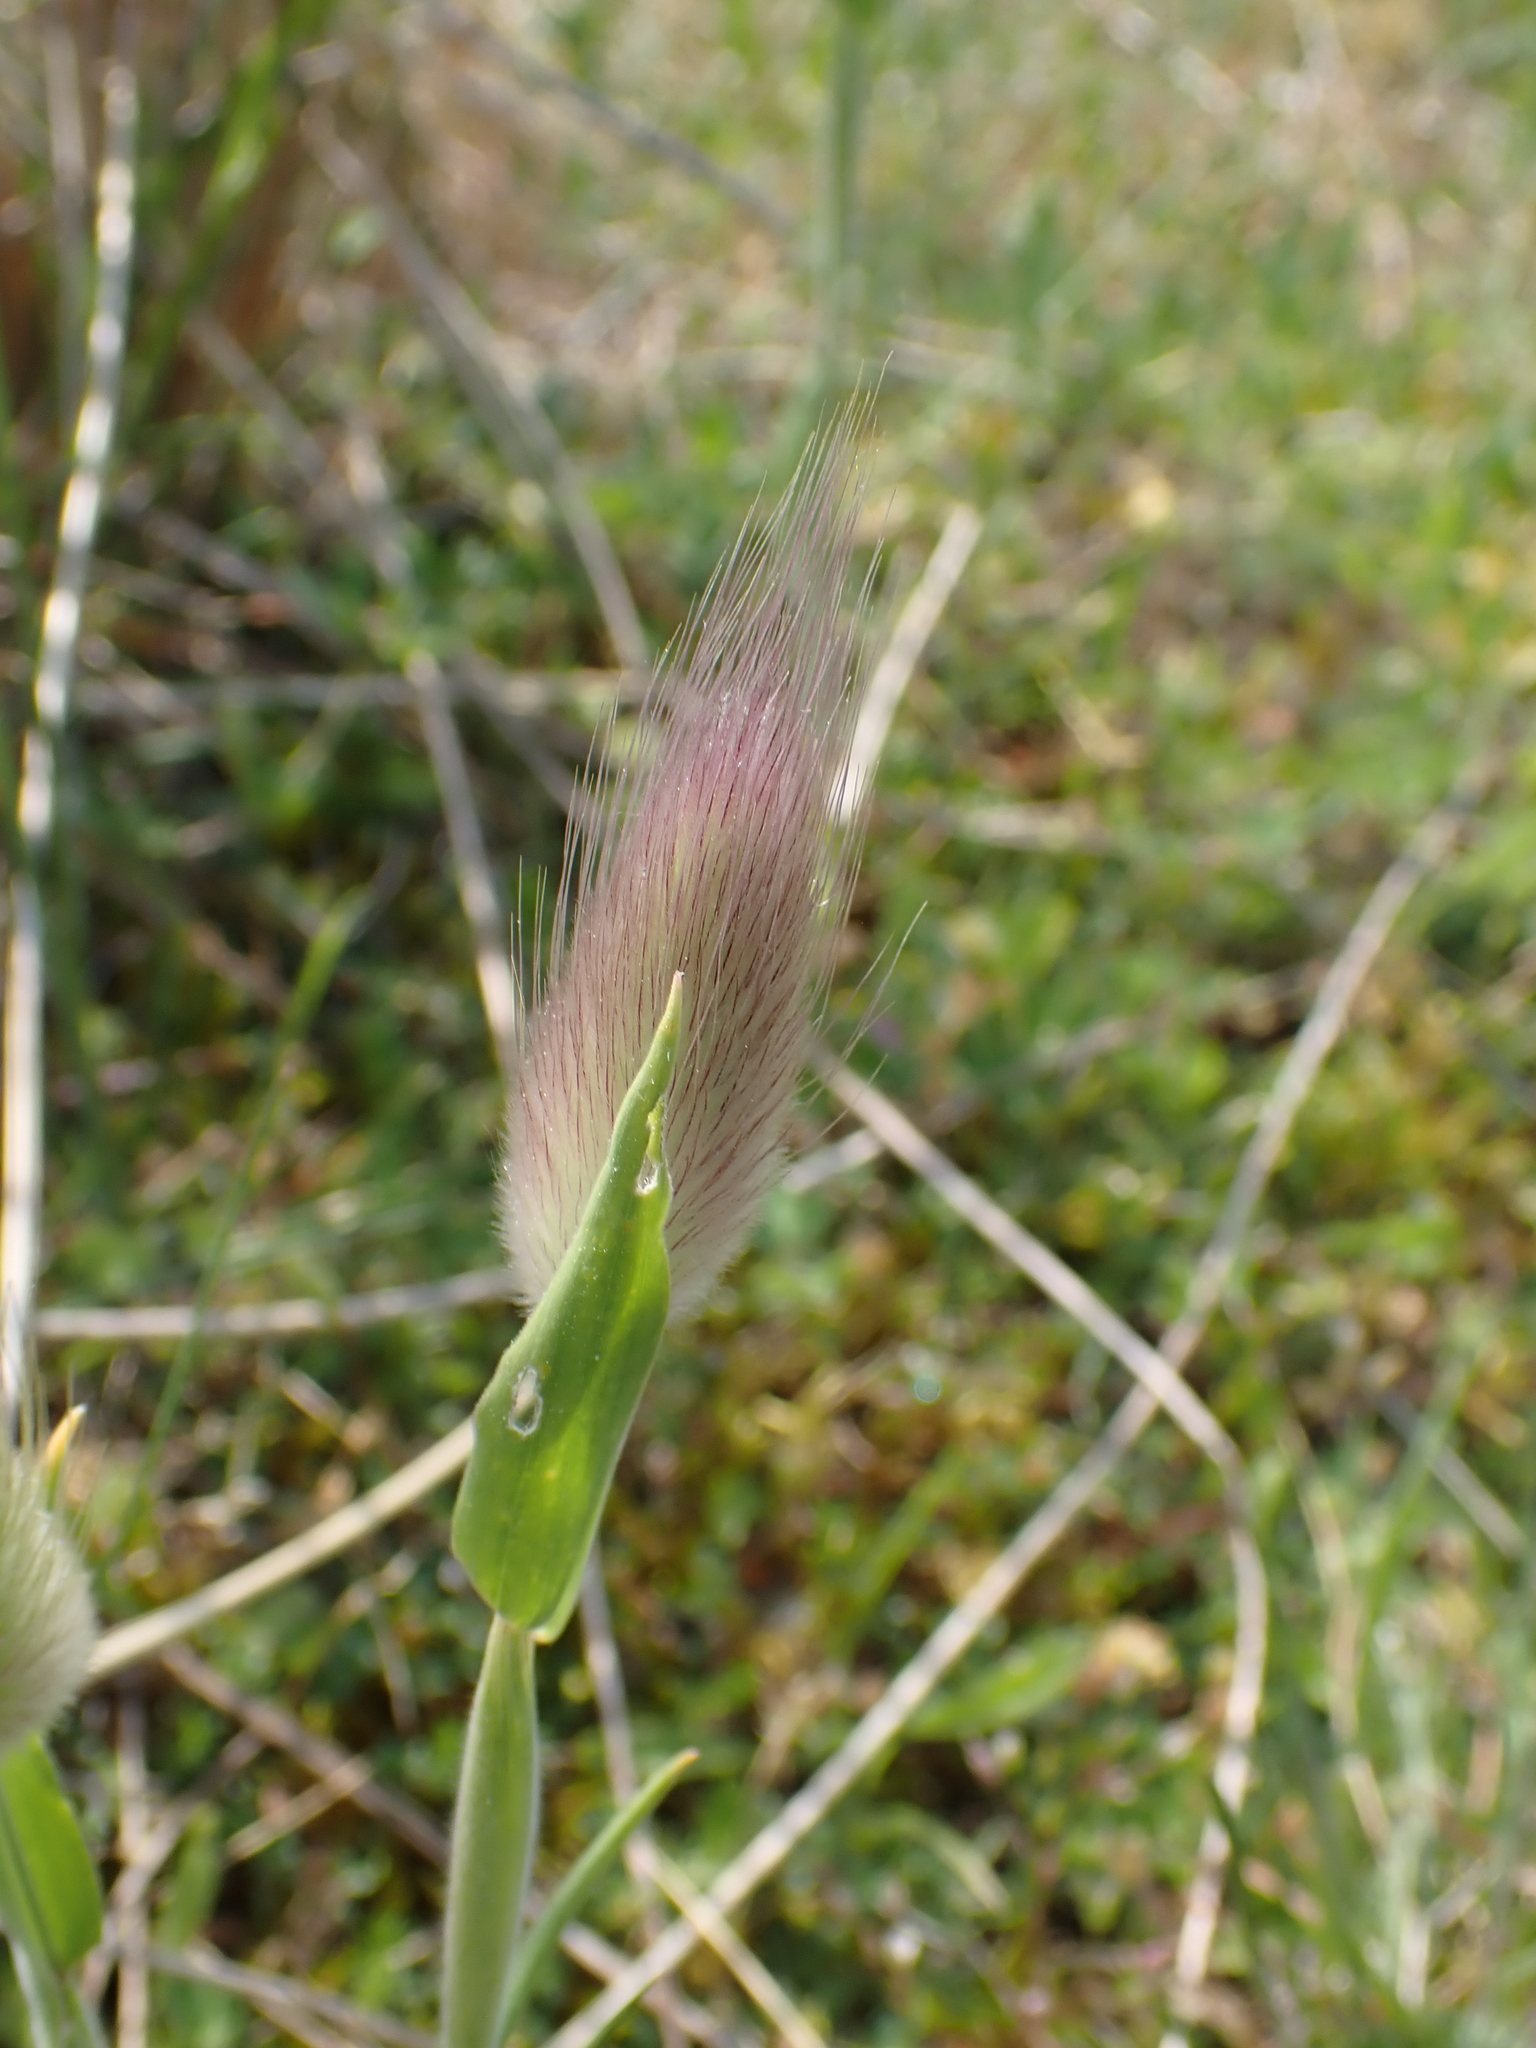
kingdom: Plantae
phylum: Tracheophyta
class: Liliopsida
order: Poales
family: Poaceae
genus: Lagurus
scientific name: Lagurus ovatus
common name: Hare's-tail
